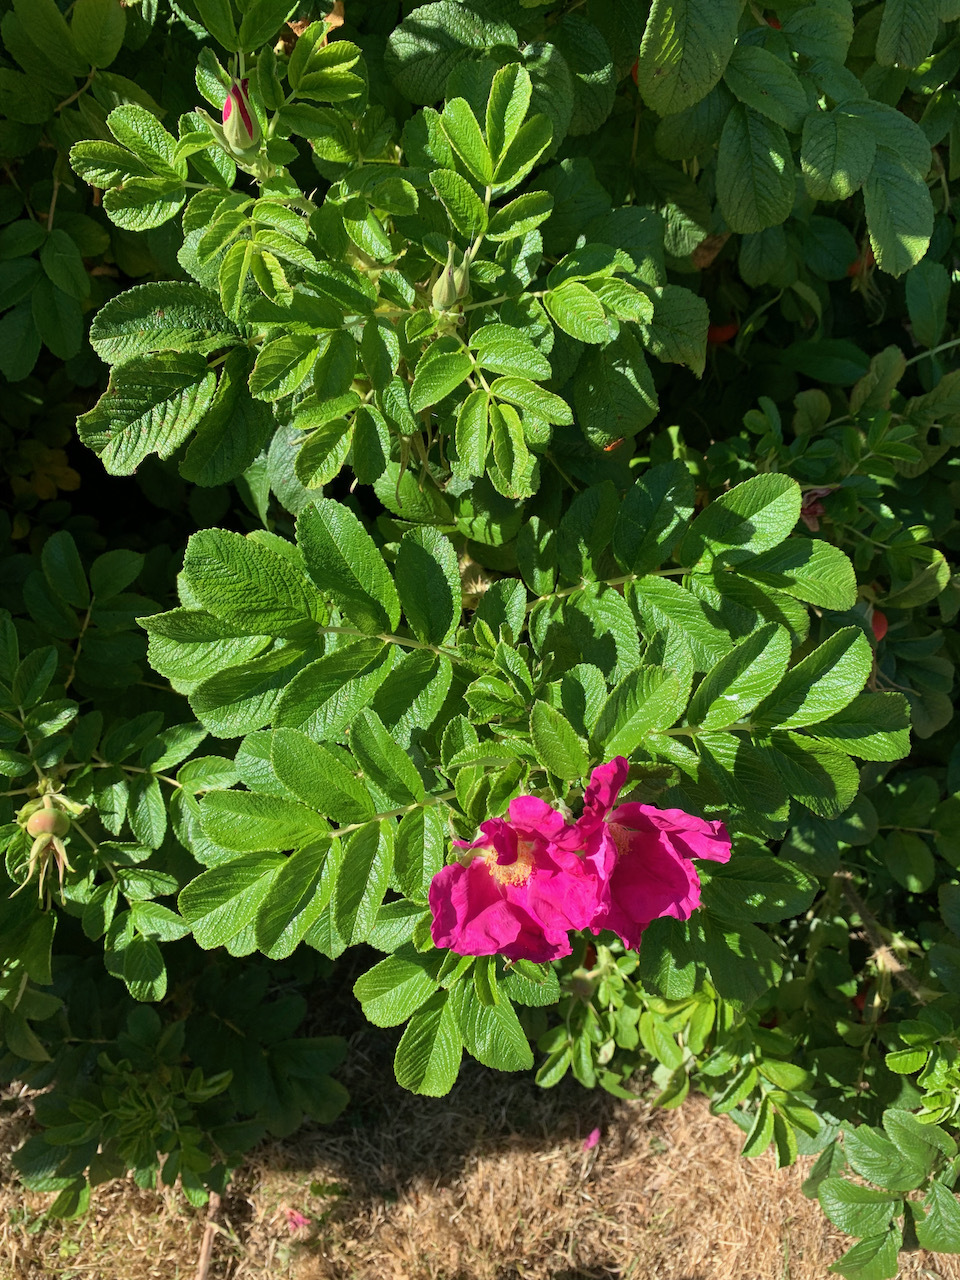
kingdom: Plantae
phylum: Tracheophyta
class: Magnoliopsida
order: Rosales
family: Rosaceae
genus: Rosa
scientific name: Rosa rugosa
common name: Japanese rose
